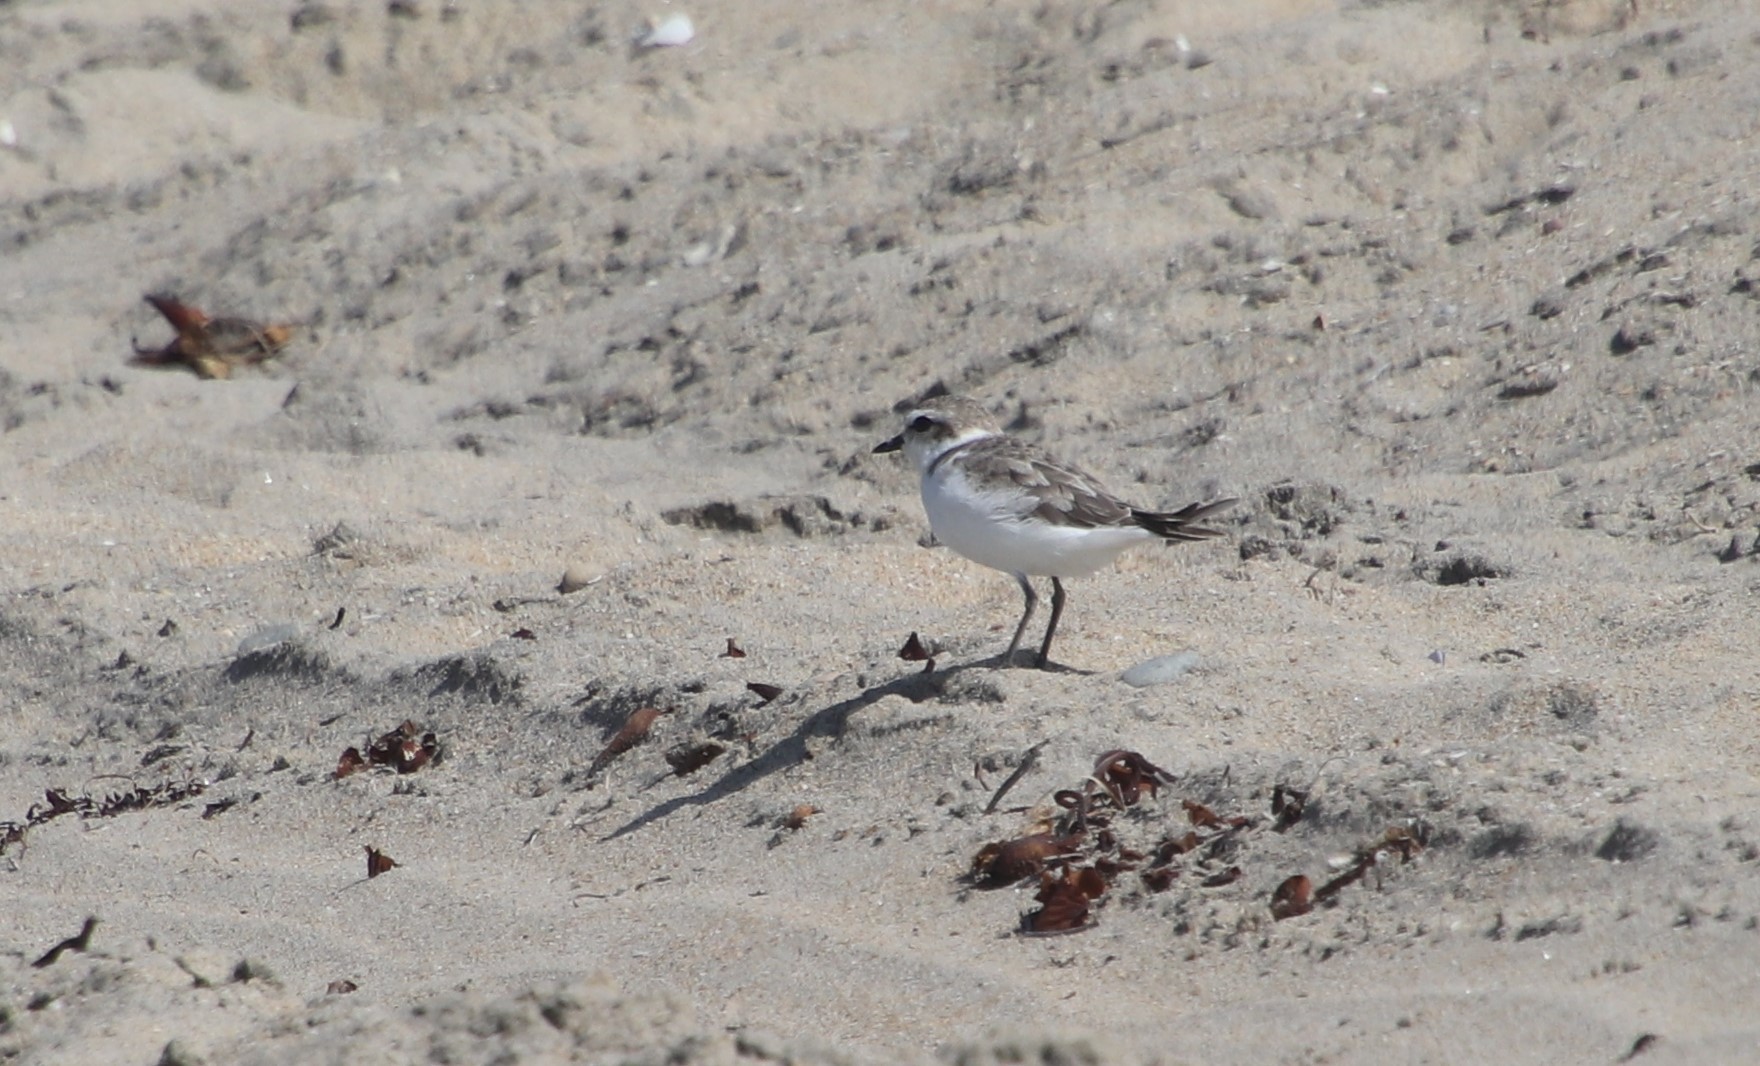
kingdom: Animalia
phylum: Chordata
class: Aves
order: Charadriiformes
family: Charadriidae
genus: Anarhynchus
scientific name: Anarhynchus
